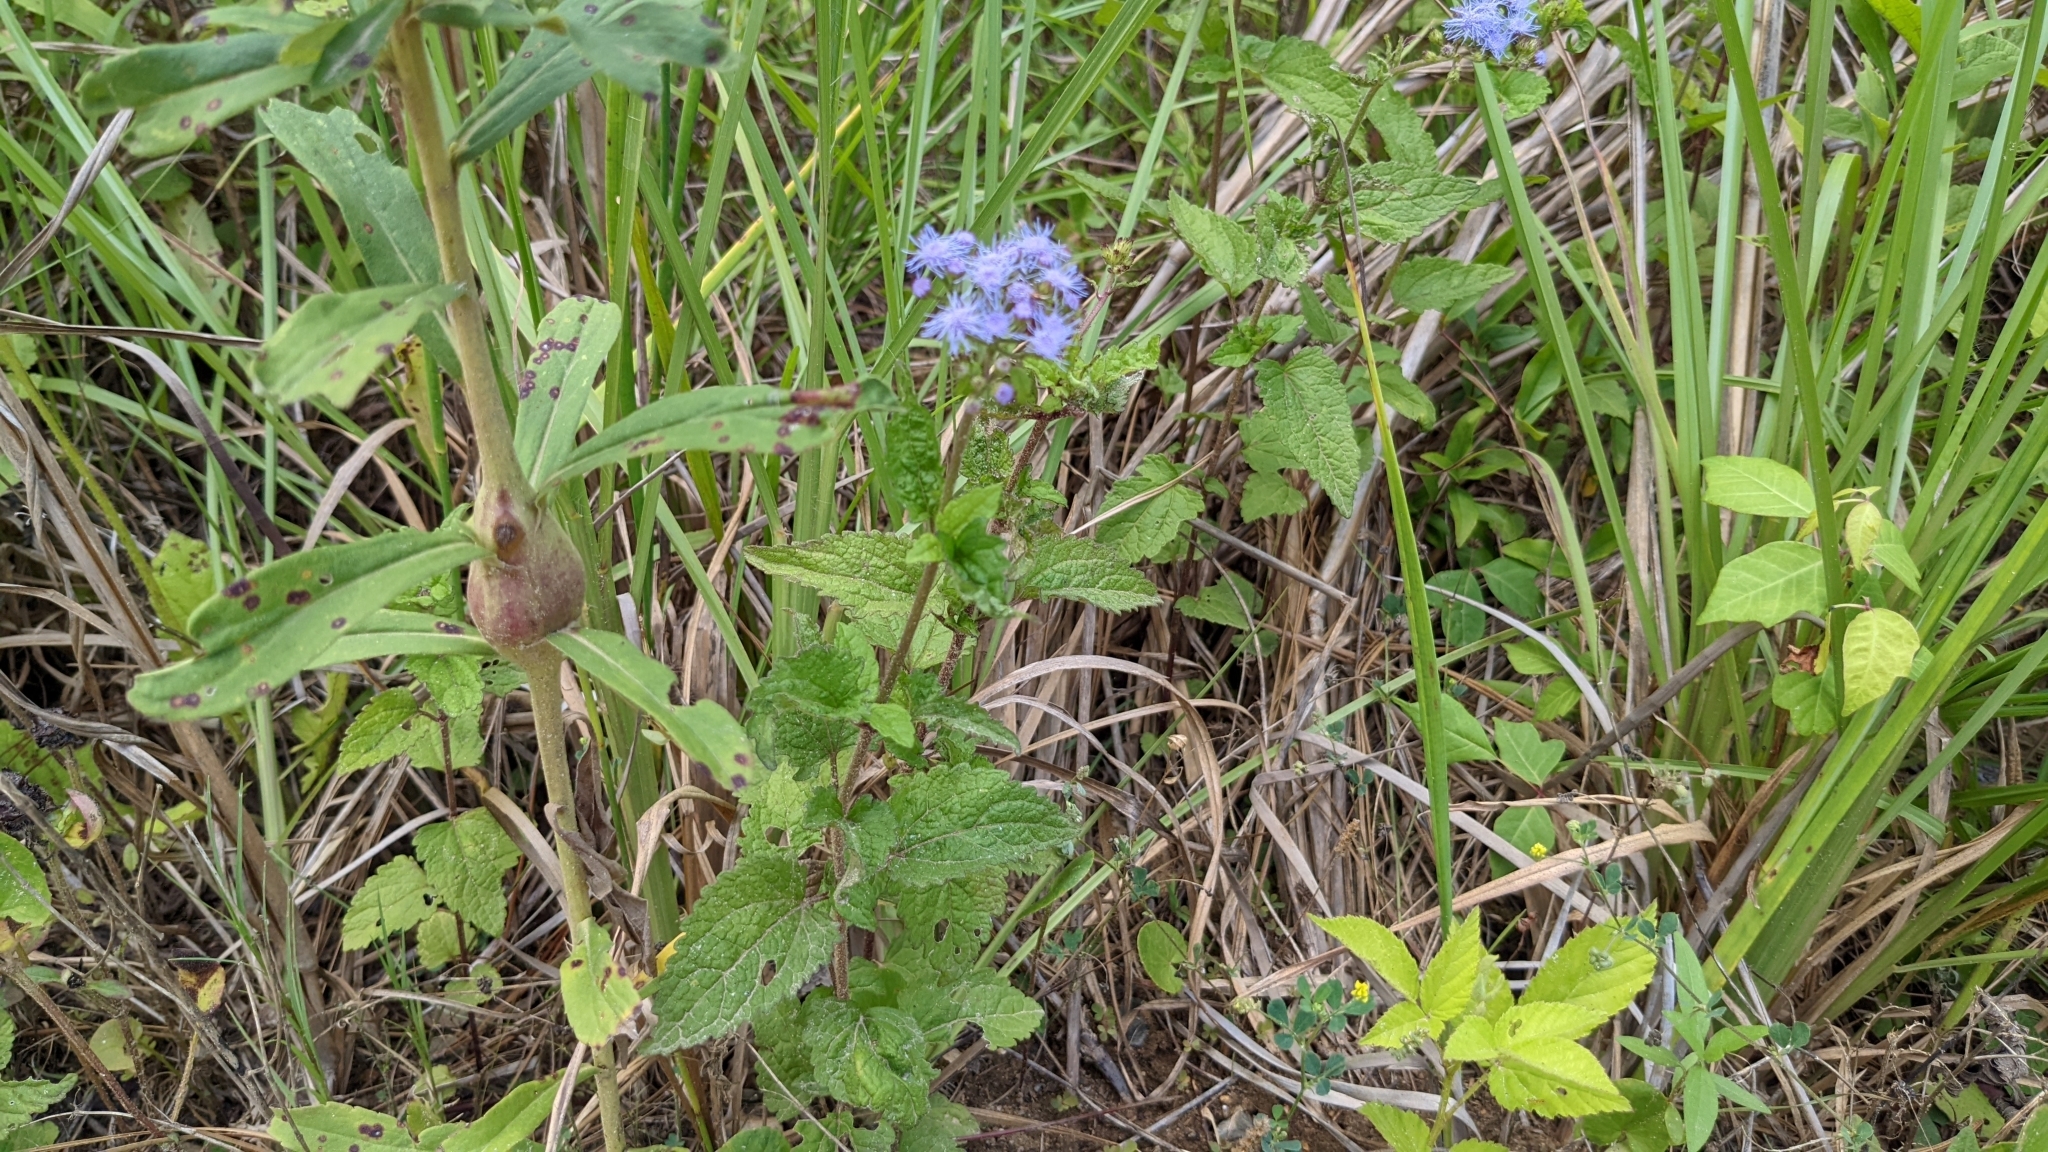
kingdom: Plantae
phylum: Tracheophyta
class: Magnoliopsida
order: Asterales
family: Asteraceae
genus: Conoclinium
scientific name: Conoclinium coelestinum
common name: Blue mistflower
